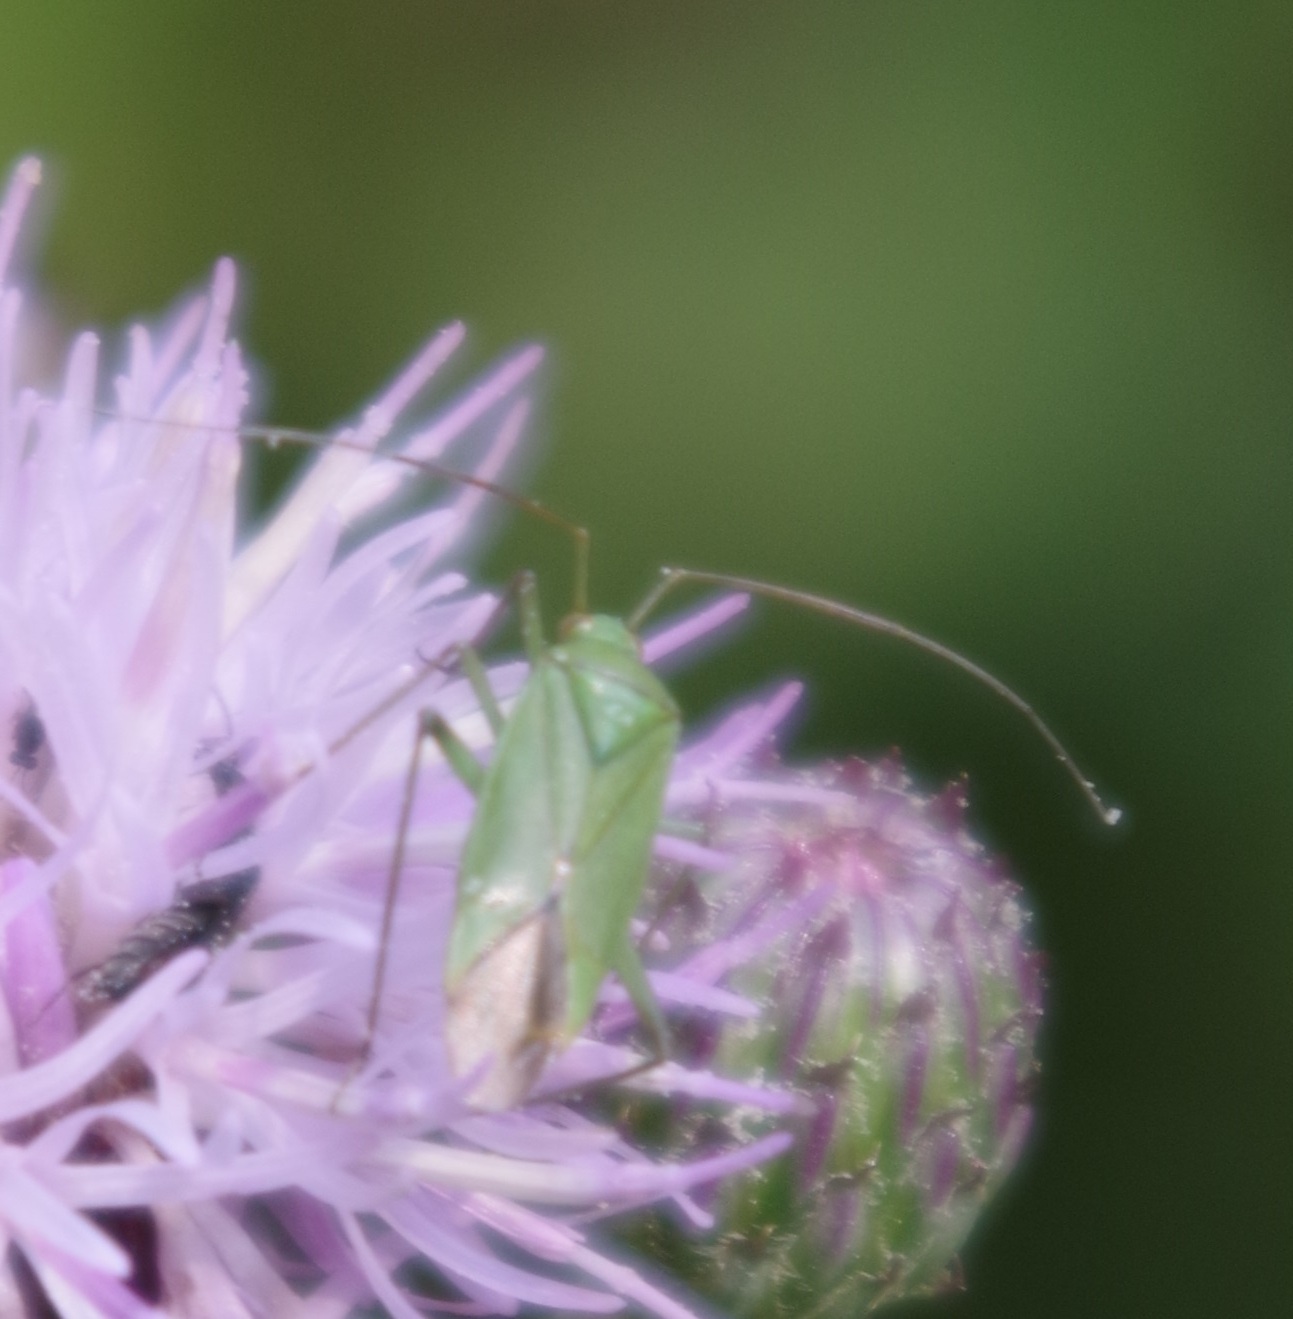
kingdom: Animalia
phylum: Arthropoda
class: Insecta
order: Hemiptera
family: Miridae
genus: Calocoris
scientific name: Calocoris affinis
